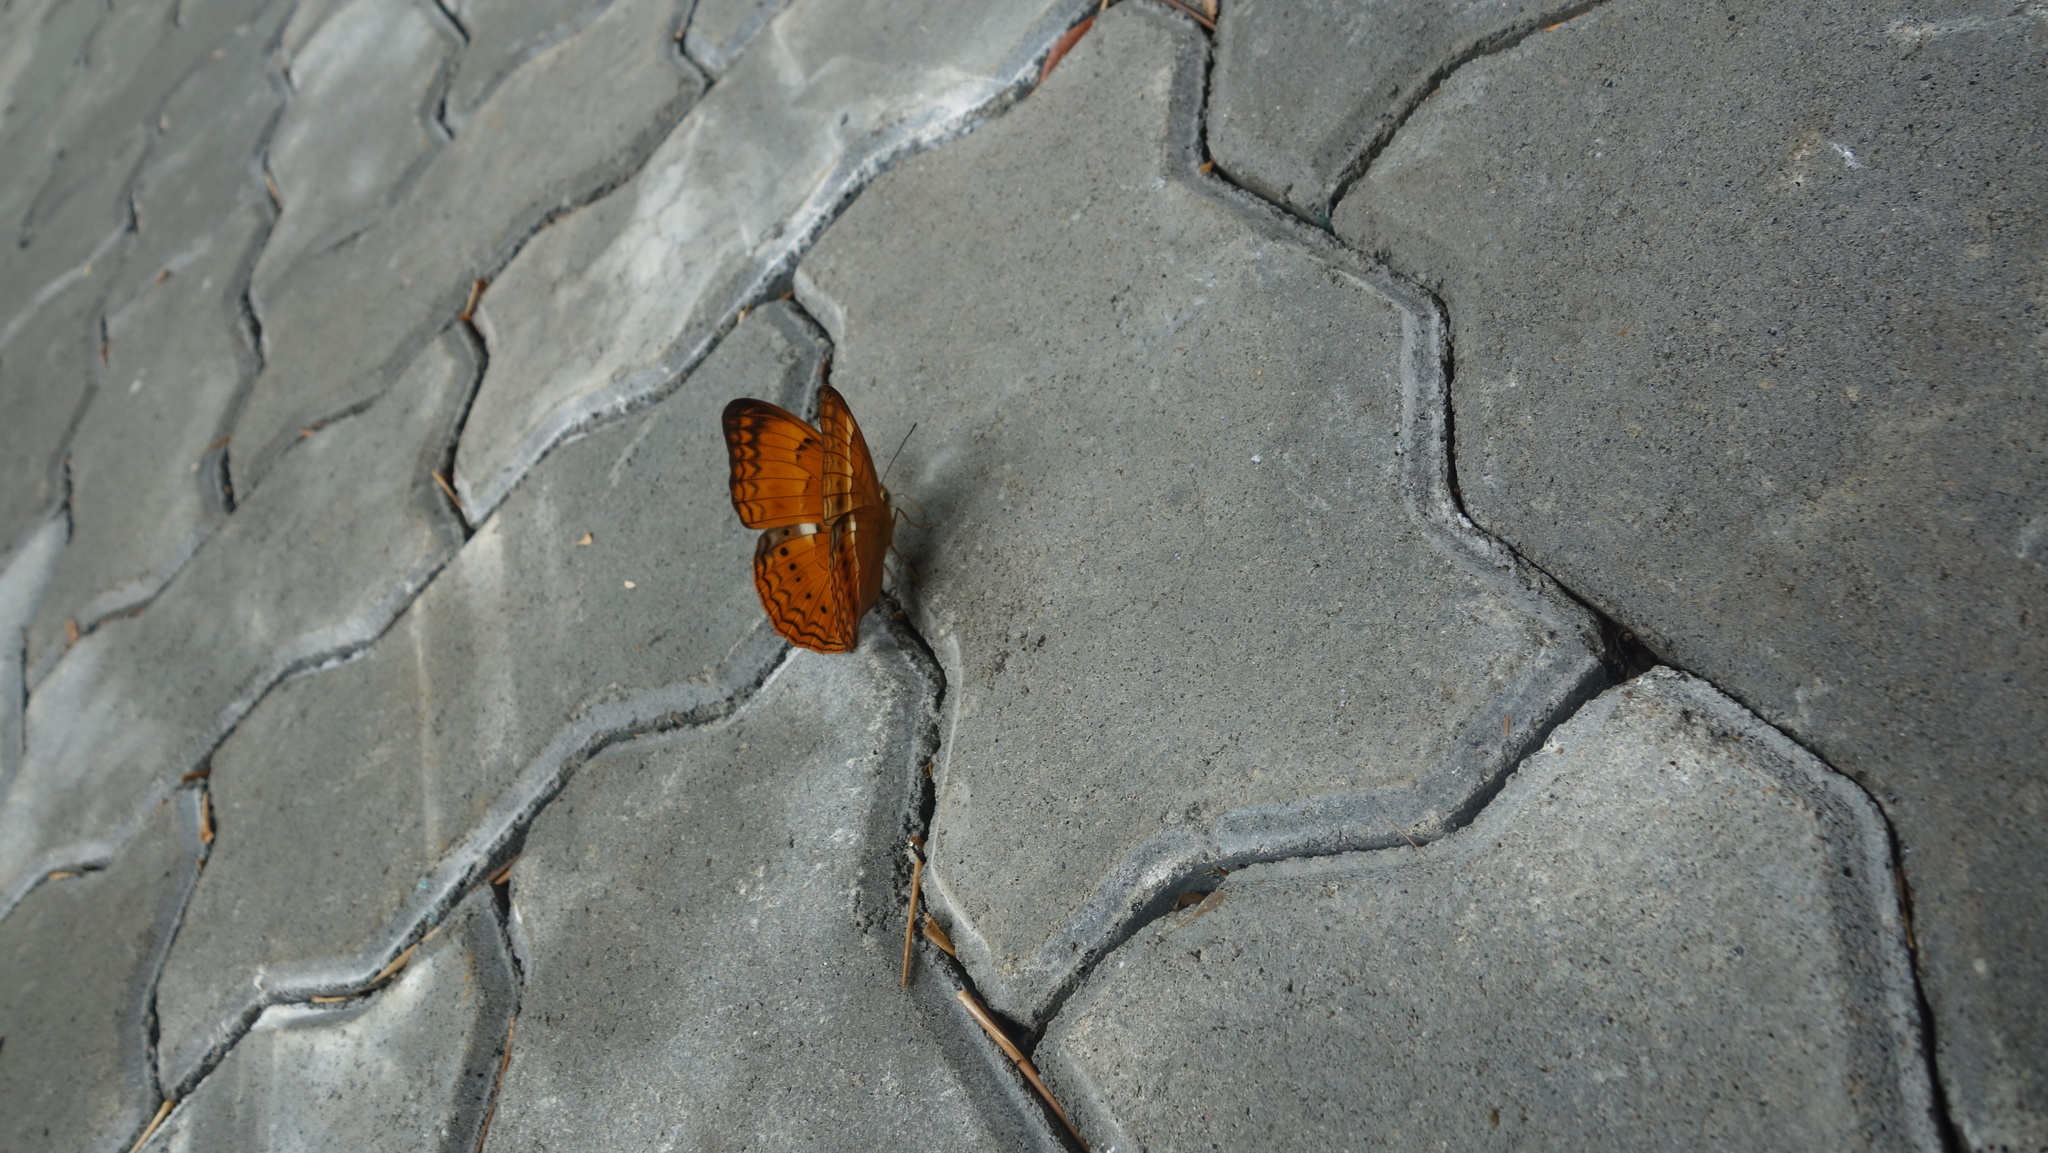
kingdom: Animalia
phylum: Arthropoda
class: Insecta
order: Lepidoptera
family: Nymphalidae
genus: Cirrochroa
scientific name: Cirrochroa thais
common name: Tamil yeoman
